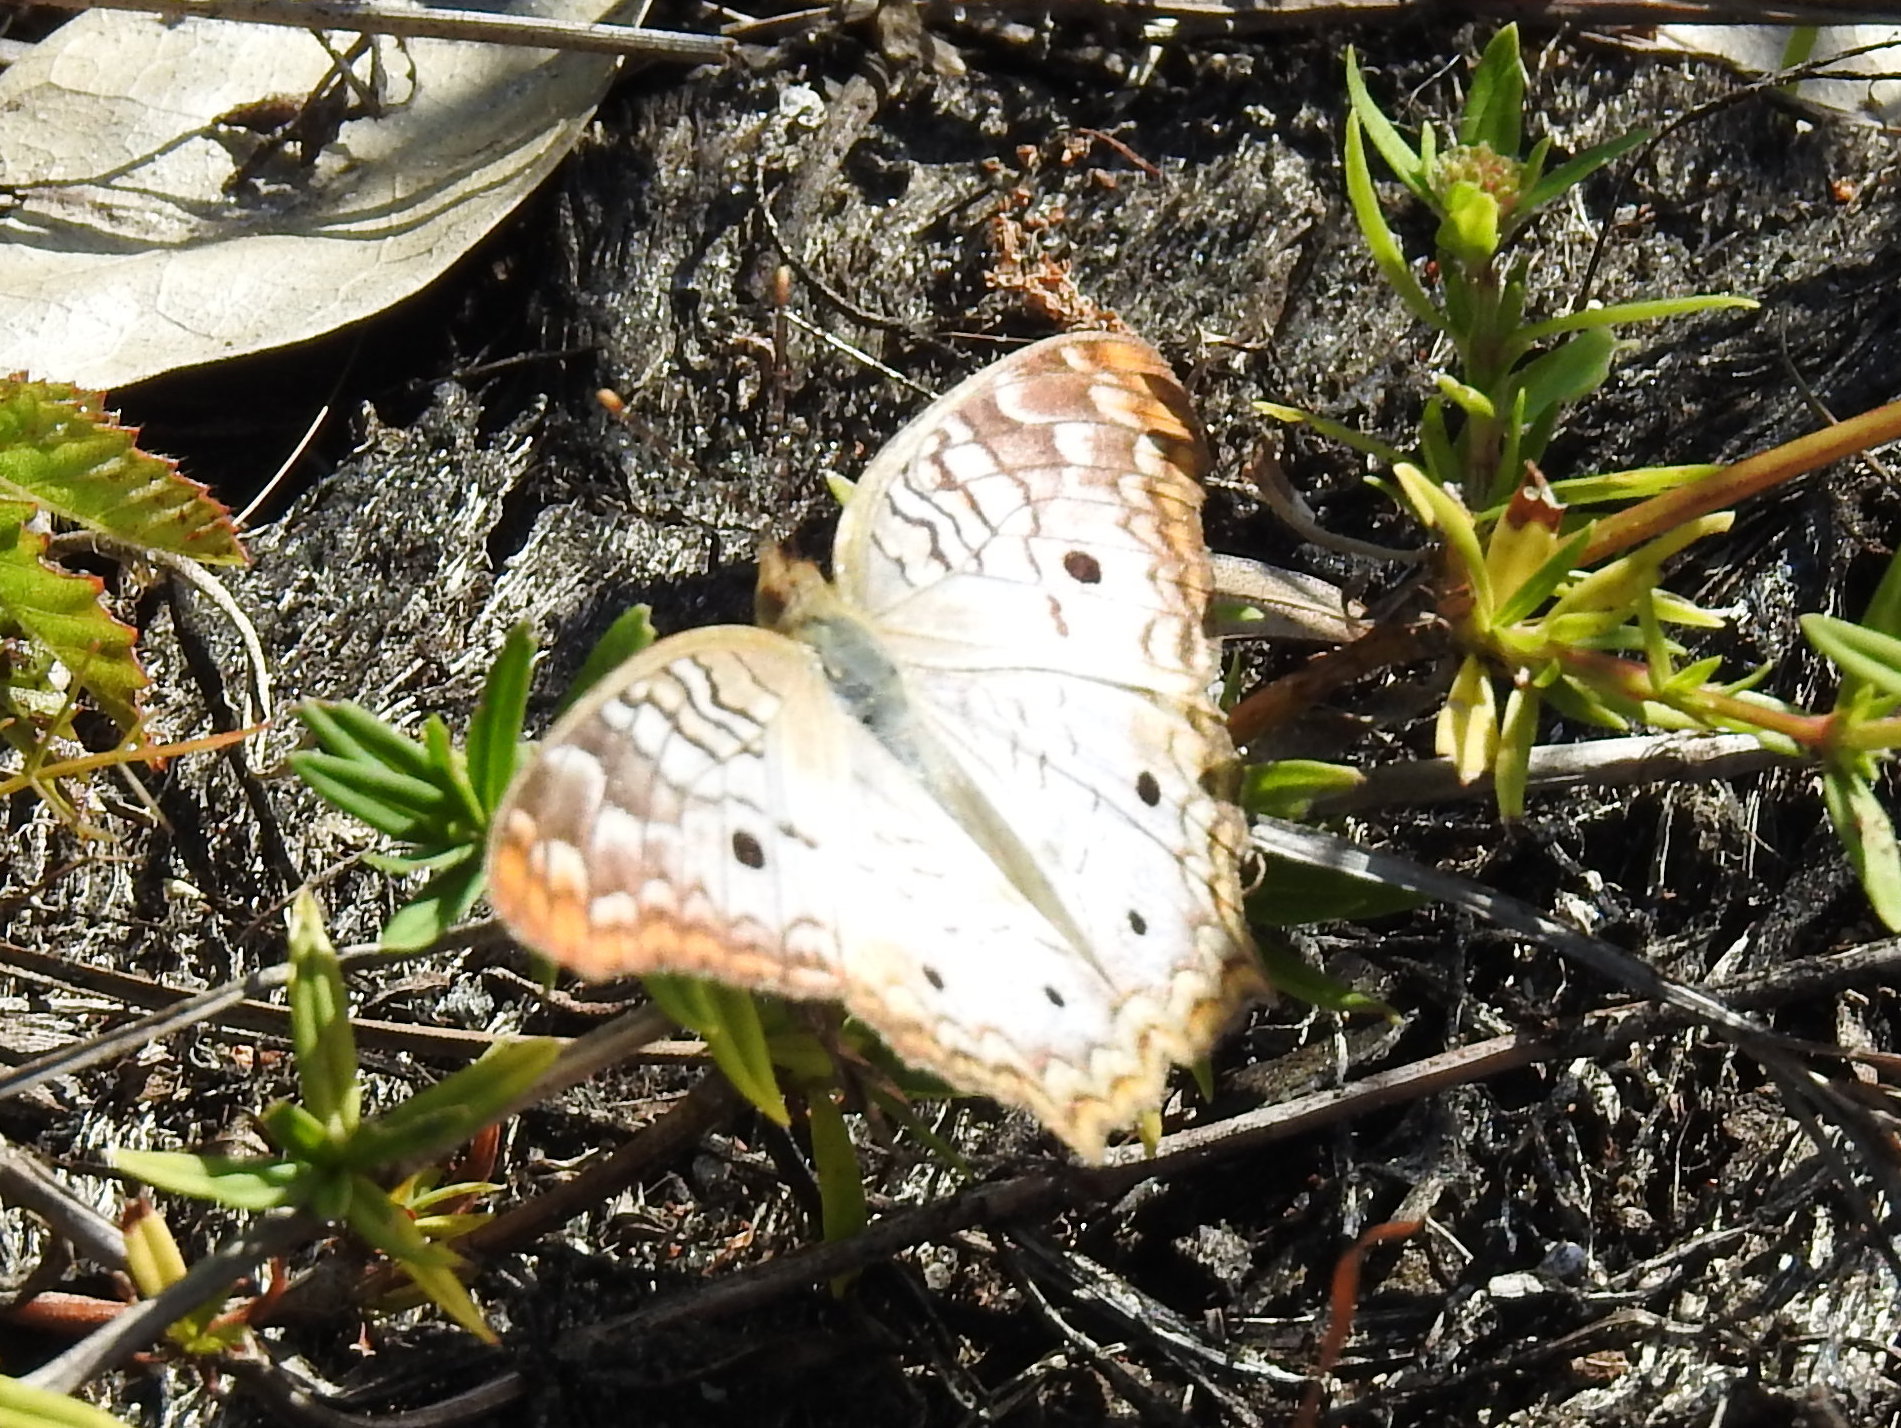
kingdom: Animalia
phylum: Arthropoda
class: Insecta
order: Lepidoptera
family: Nymphalidae
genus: Anartia
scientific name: Anartia jatrophae
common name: White peacock
